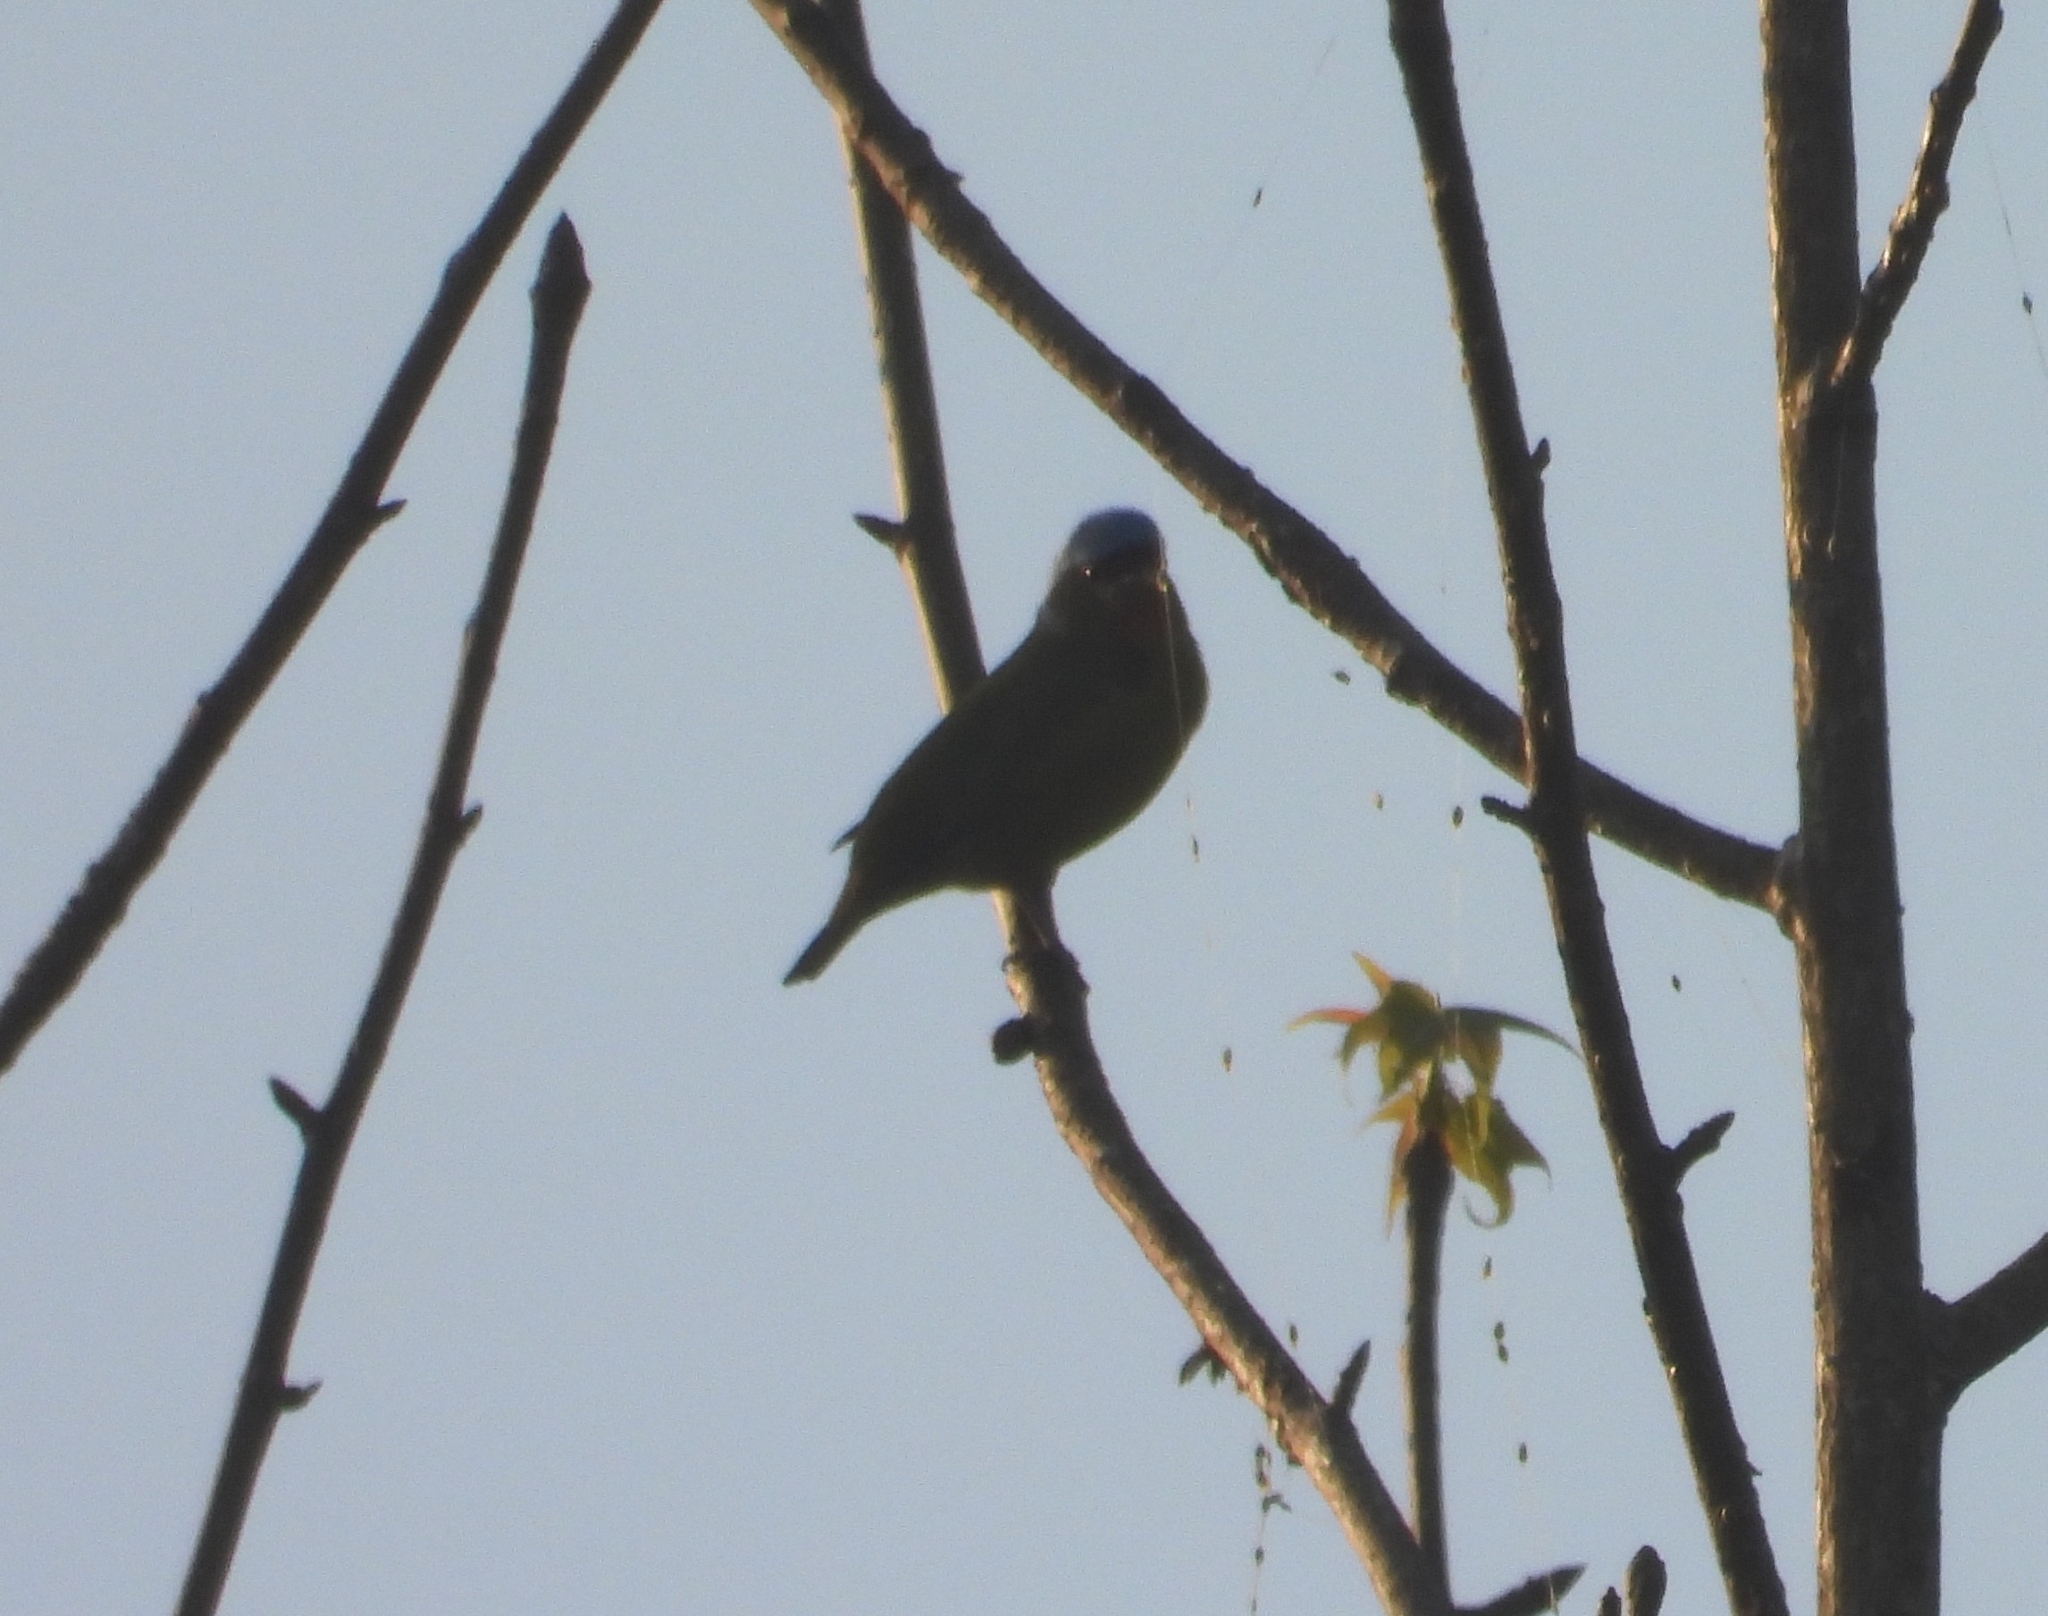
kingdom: Animalia
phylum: Chordata
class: Aves
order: Passeriformes
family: Fringillidae
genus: Euphonia
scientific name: Euphonia elegantissima
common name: Elegant euphonia
